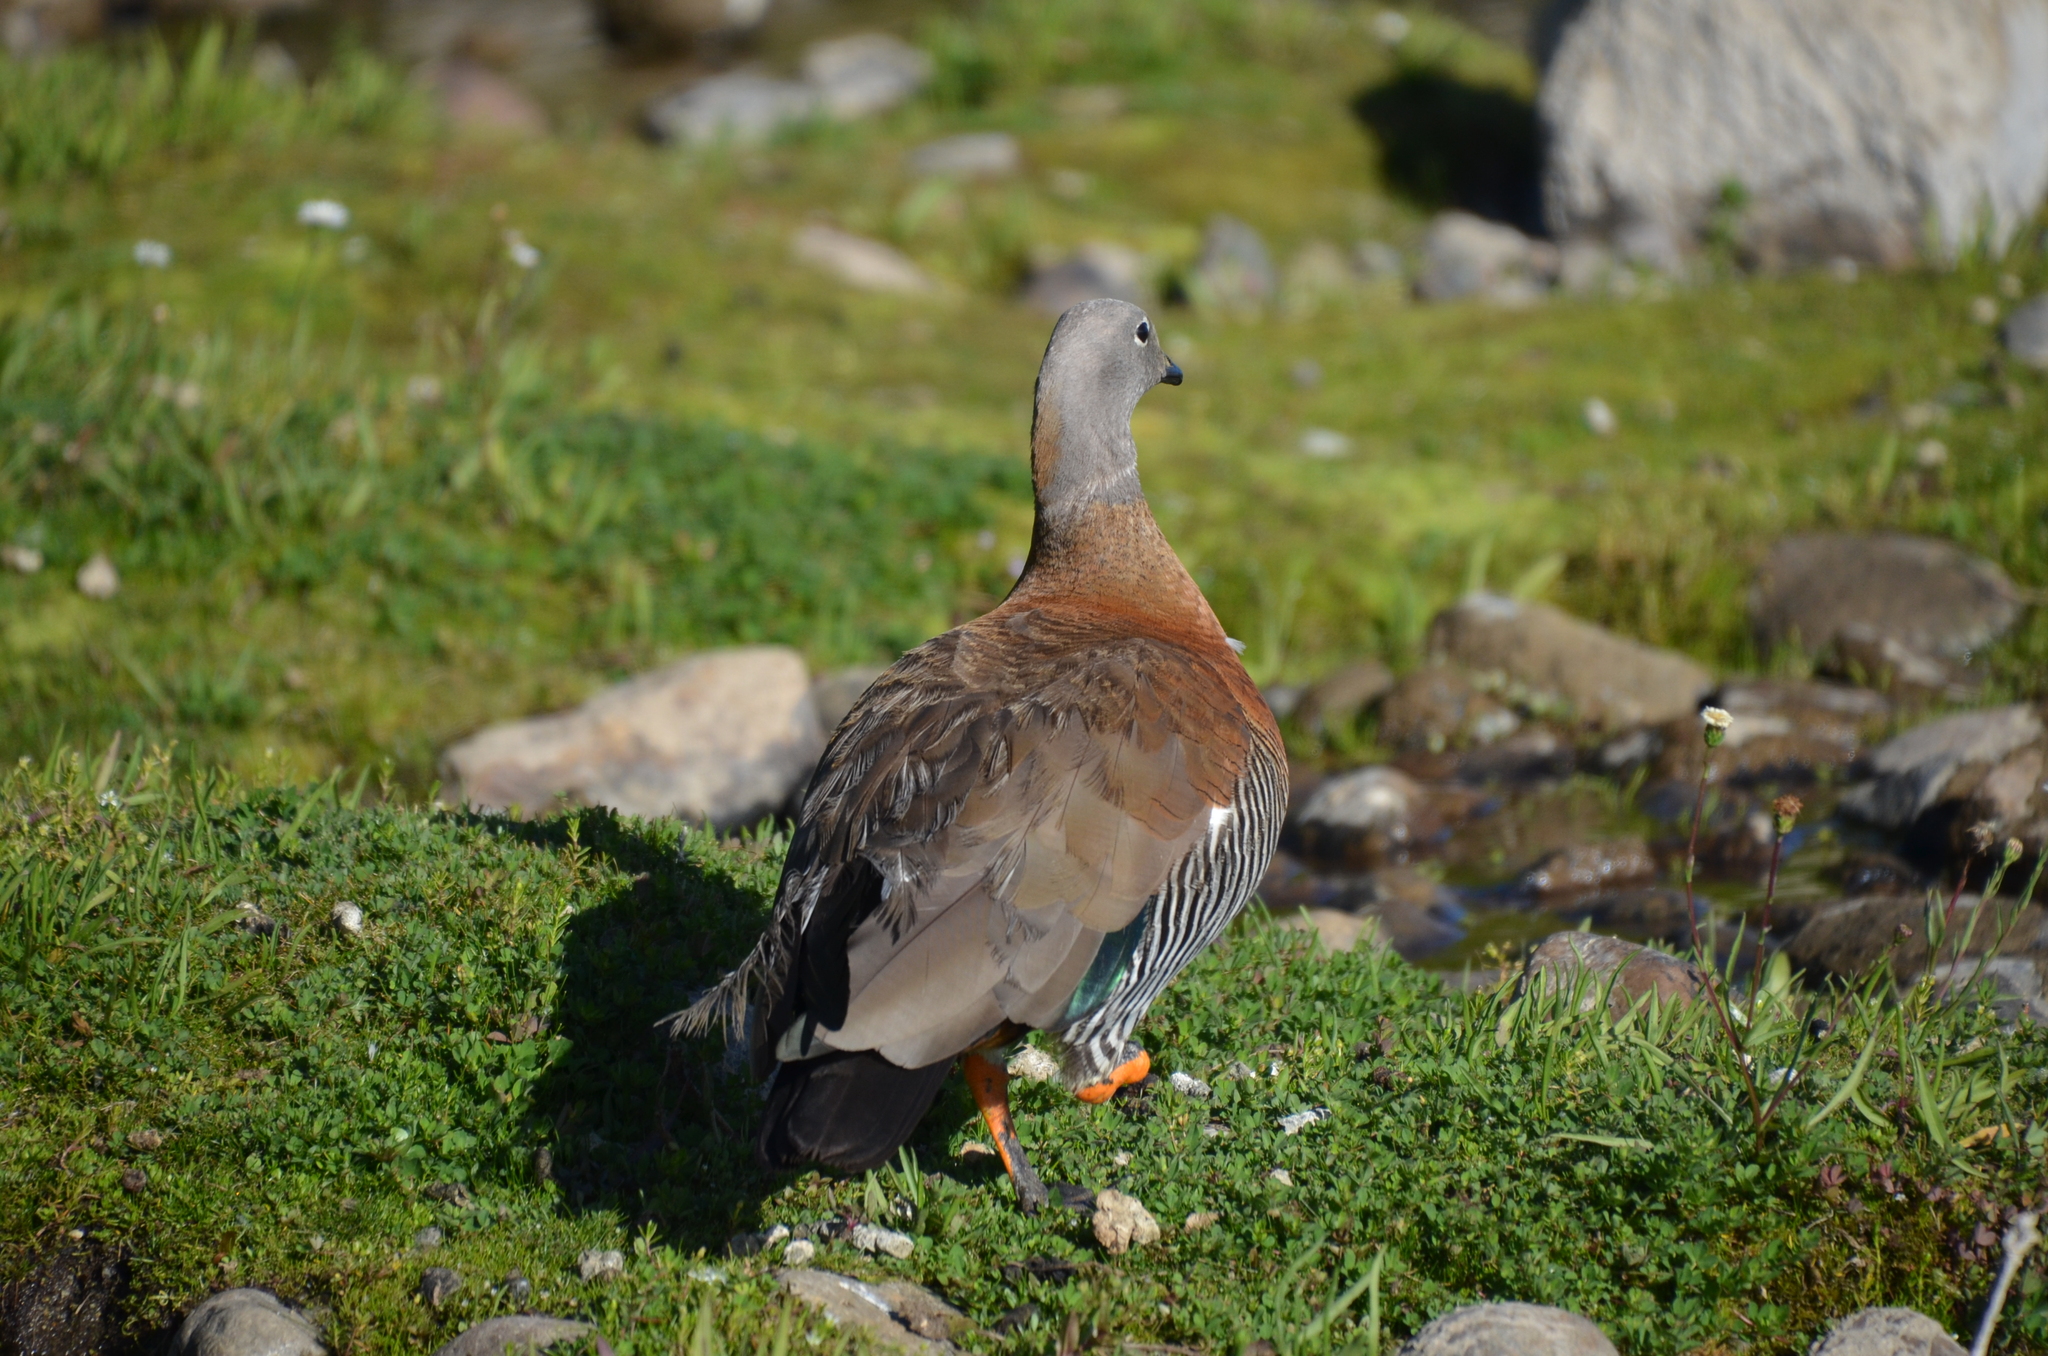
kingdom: Animalia
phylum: Chordata
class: Aves
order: Anseriformes
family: Anatidae
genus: Chloephaga
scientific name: Chloephaga poliocephala
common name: Ashy-headed goose
